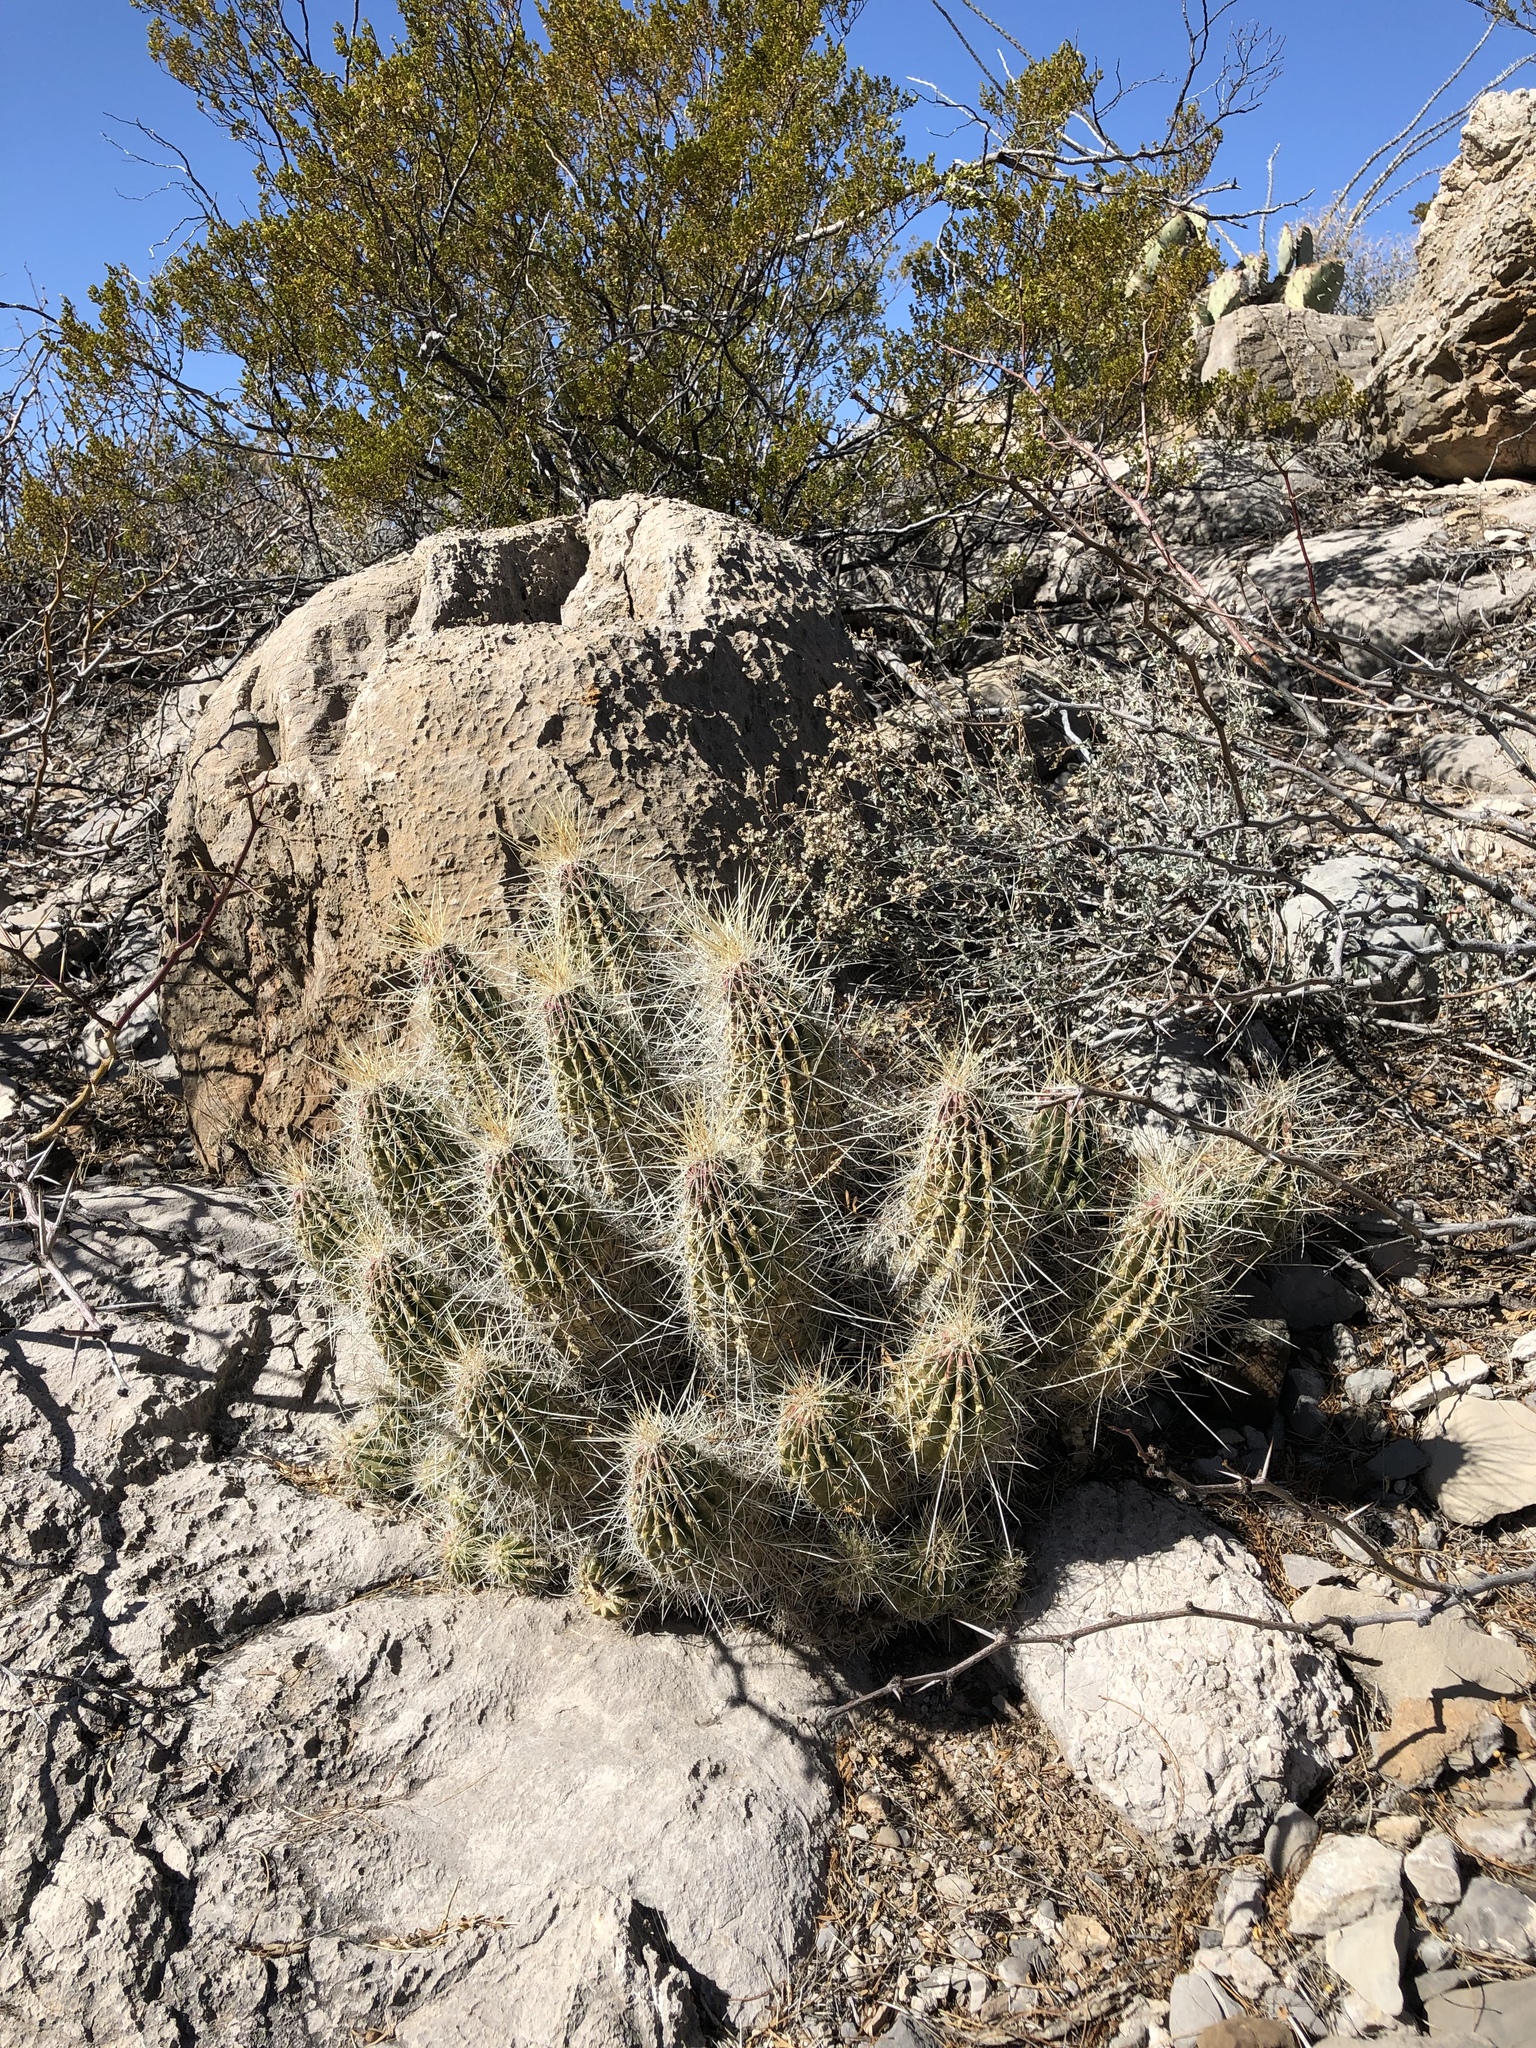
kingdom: Plantae
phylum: Tracheophyta
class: Magnoliopsida
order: Caryophyllales
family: Cactaceae
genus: Echinocereus
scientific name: Echinocereus stramineus
